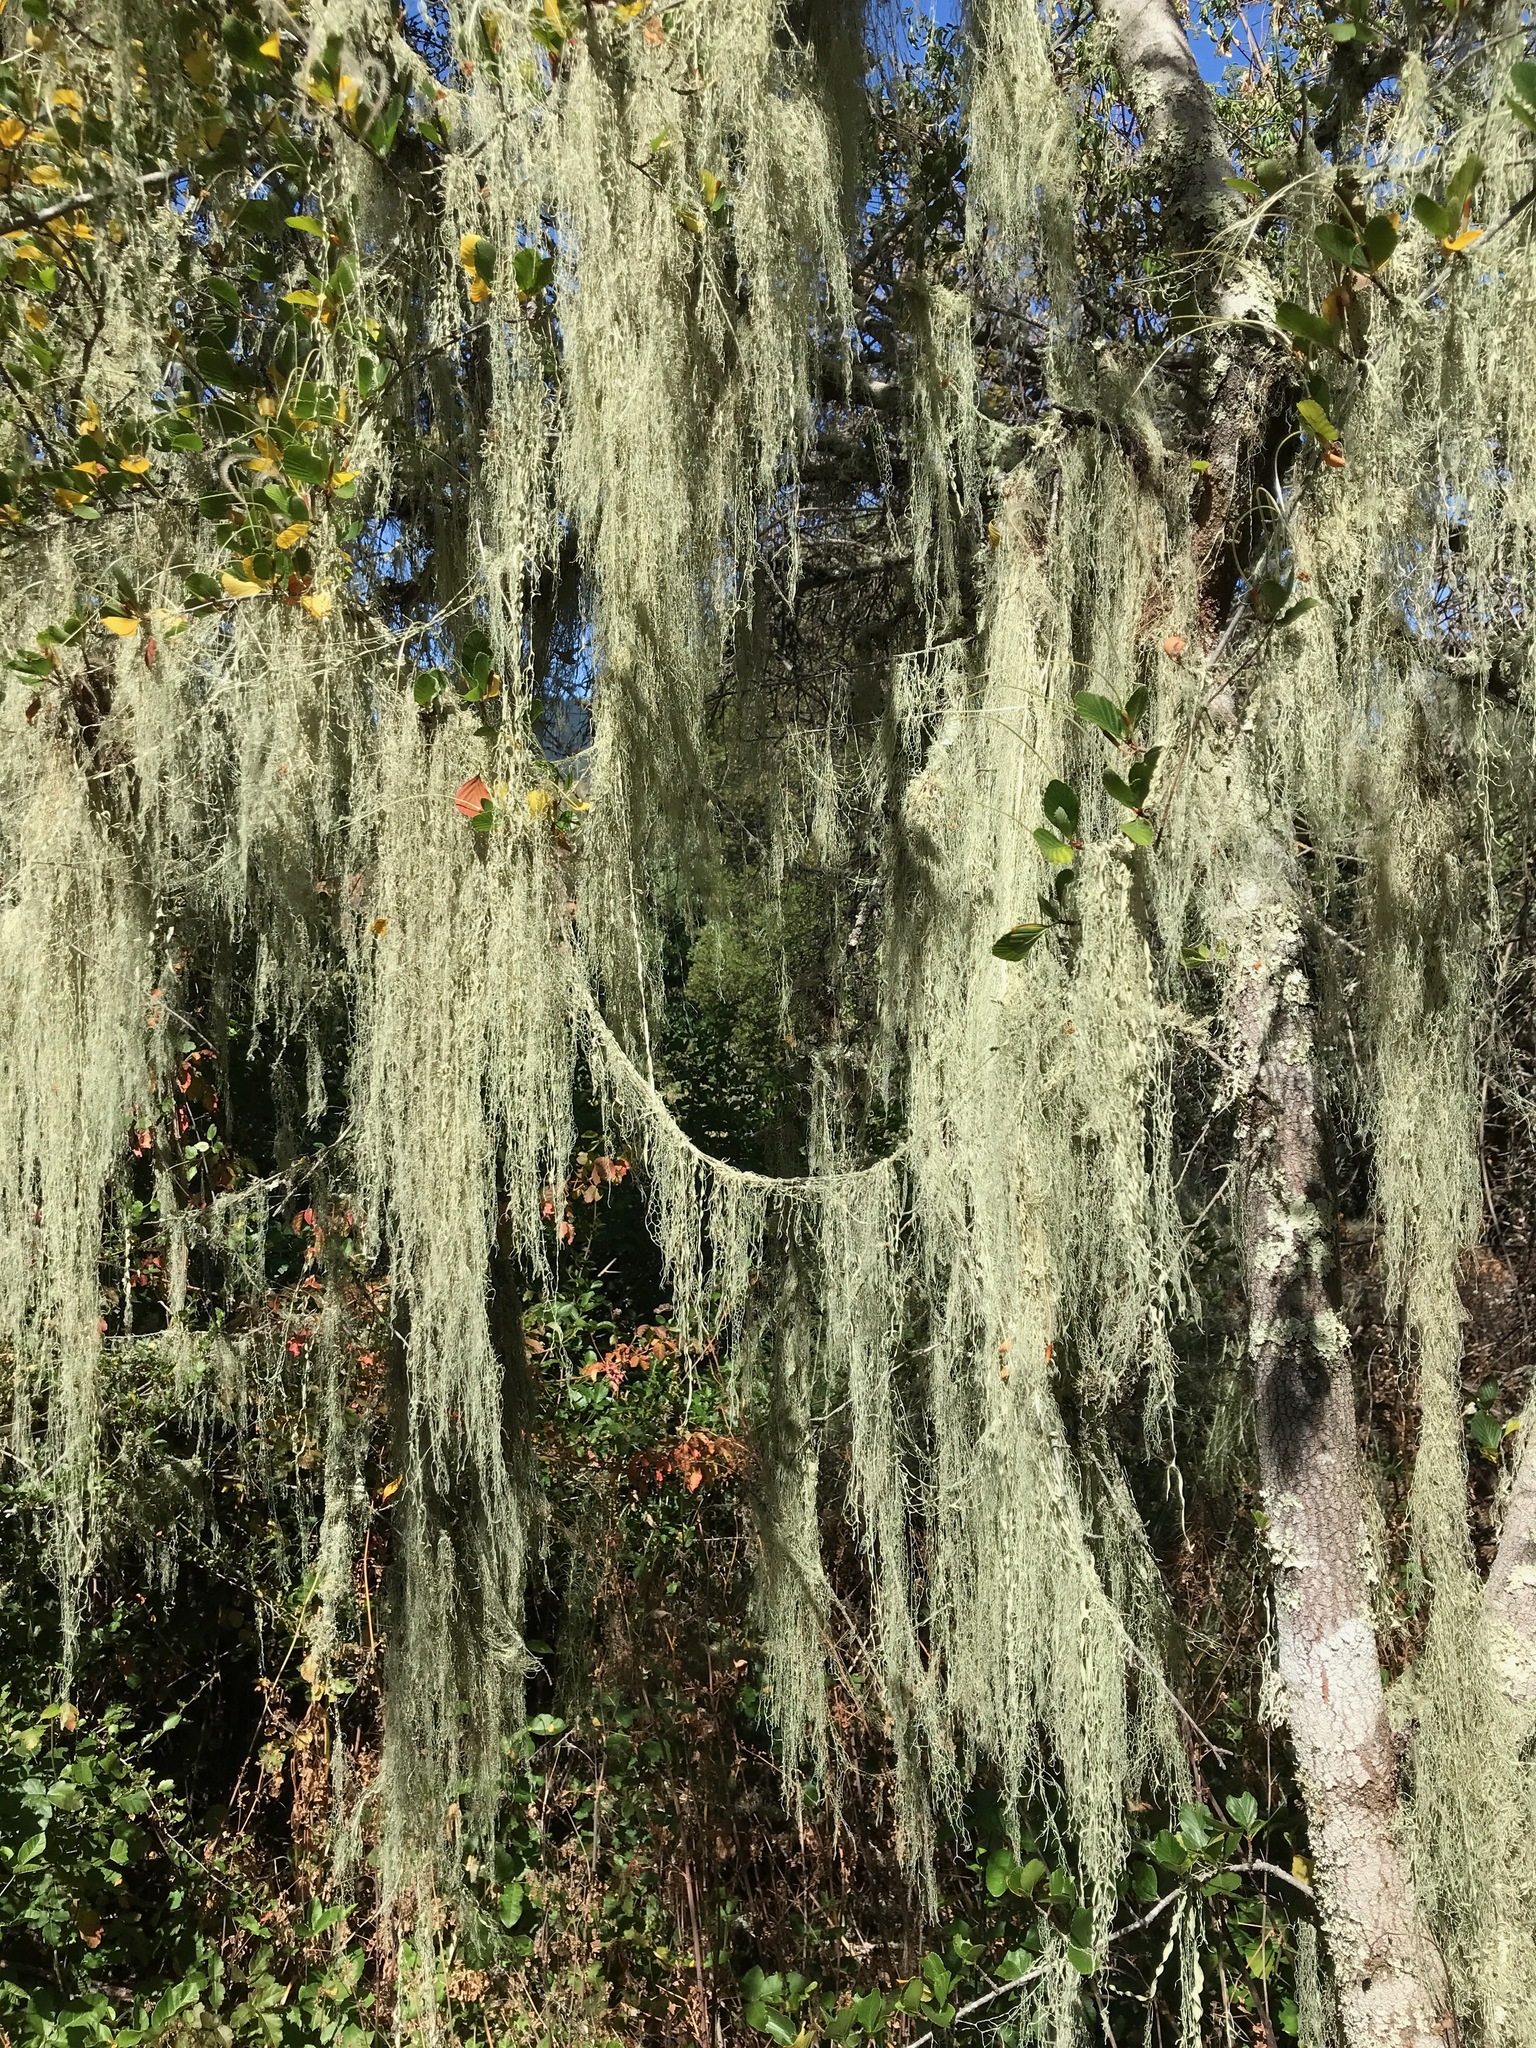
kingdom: Fungi
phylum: Ascomycota
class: Lecanoromycetes
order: Lecanorales
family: Ramalinaceae
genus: Ramalina
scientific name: Ramalina menziesii
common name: Lace lichen
